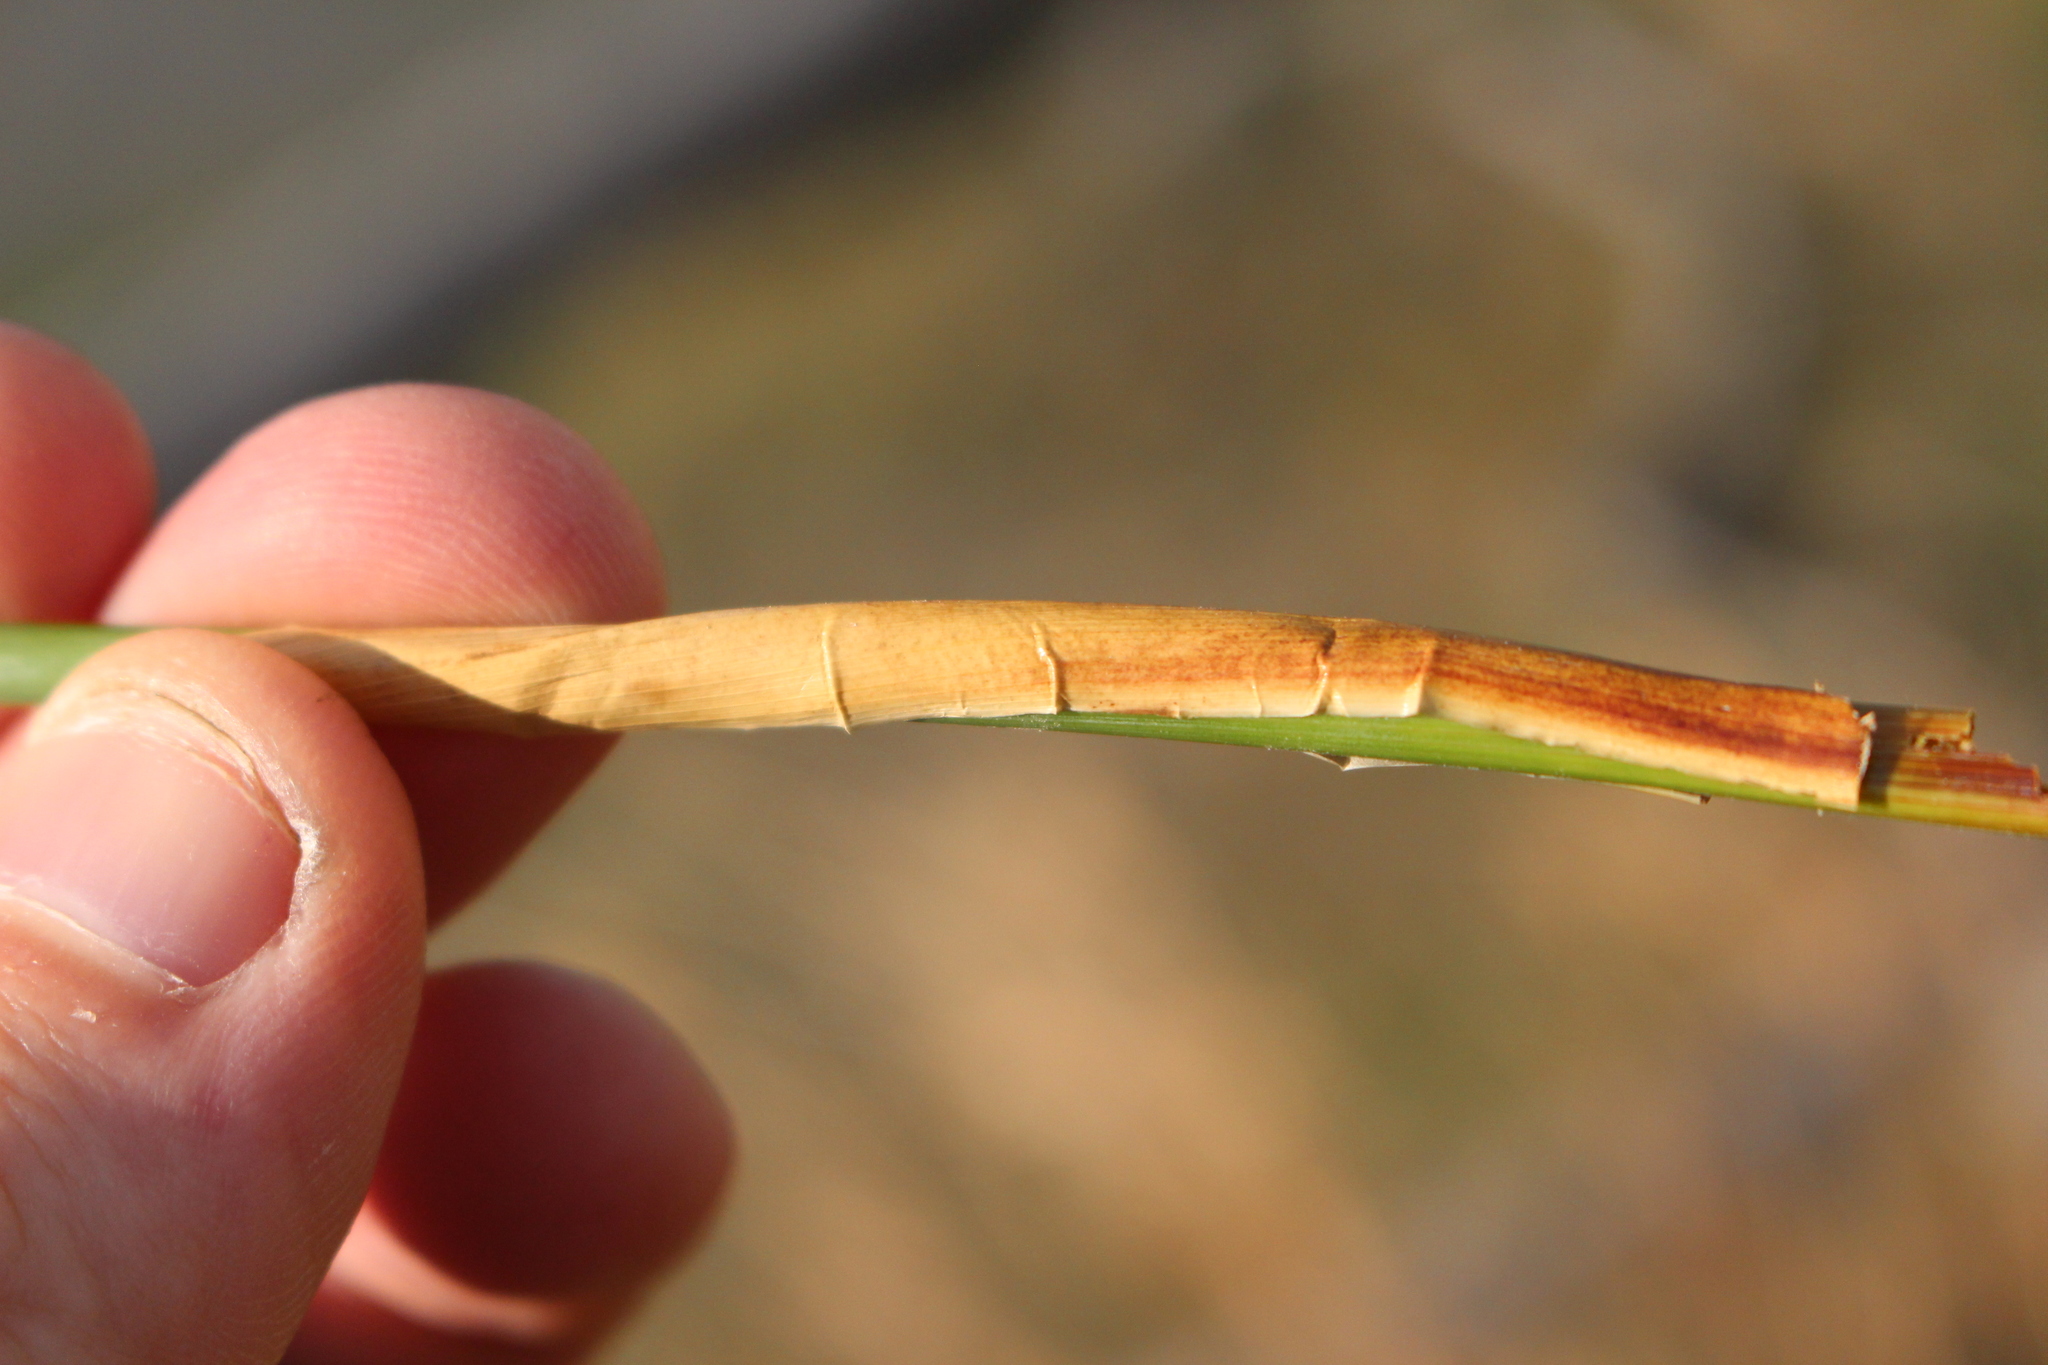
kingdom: Plantae
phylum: Tracheophyta
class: Liliopsida
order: Poales
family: Juncaceae
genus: Juncus
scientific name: Juncus sarophorus
